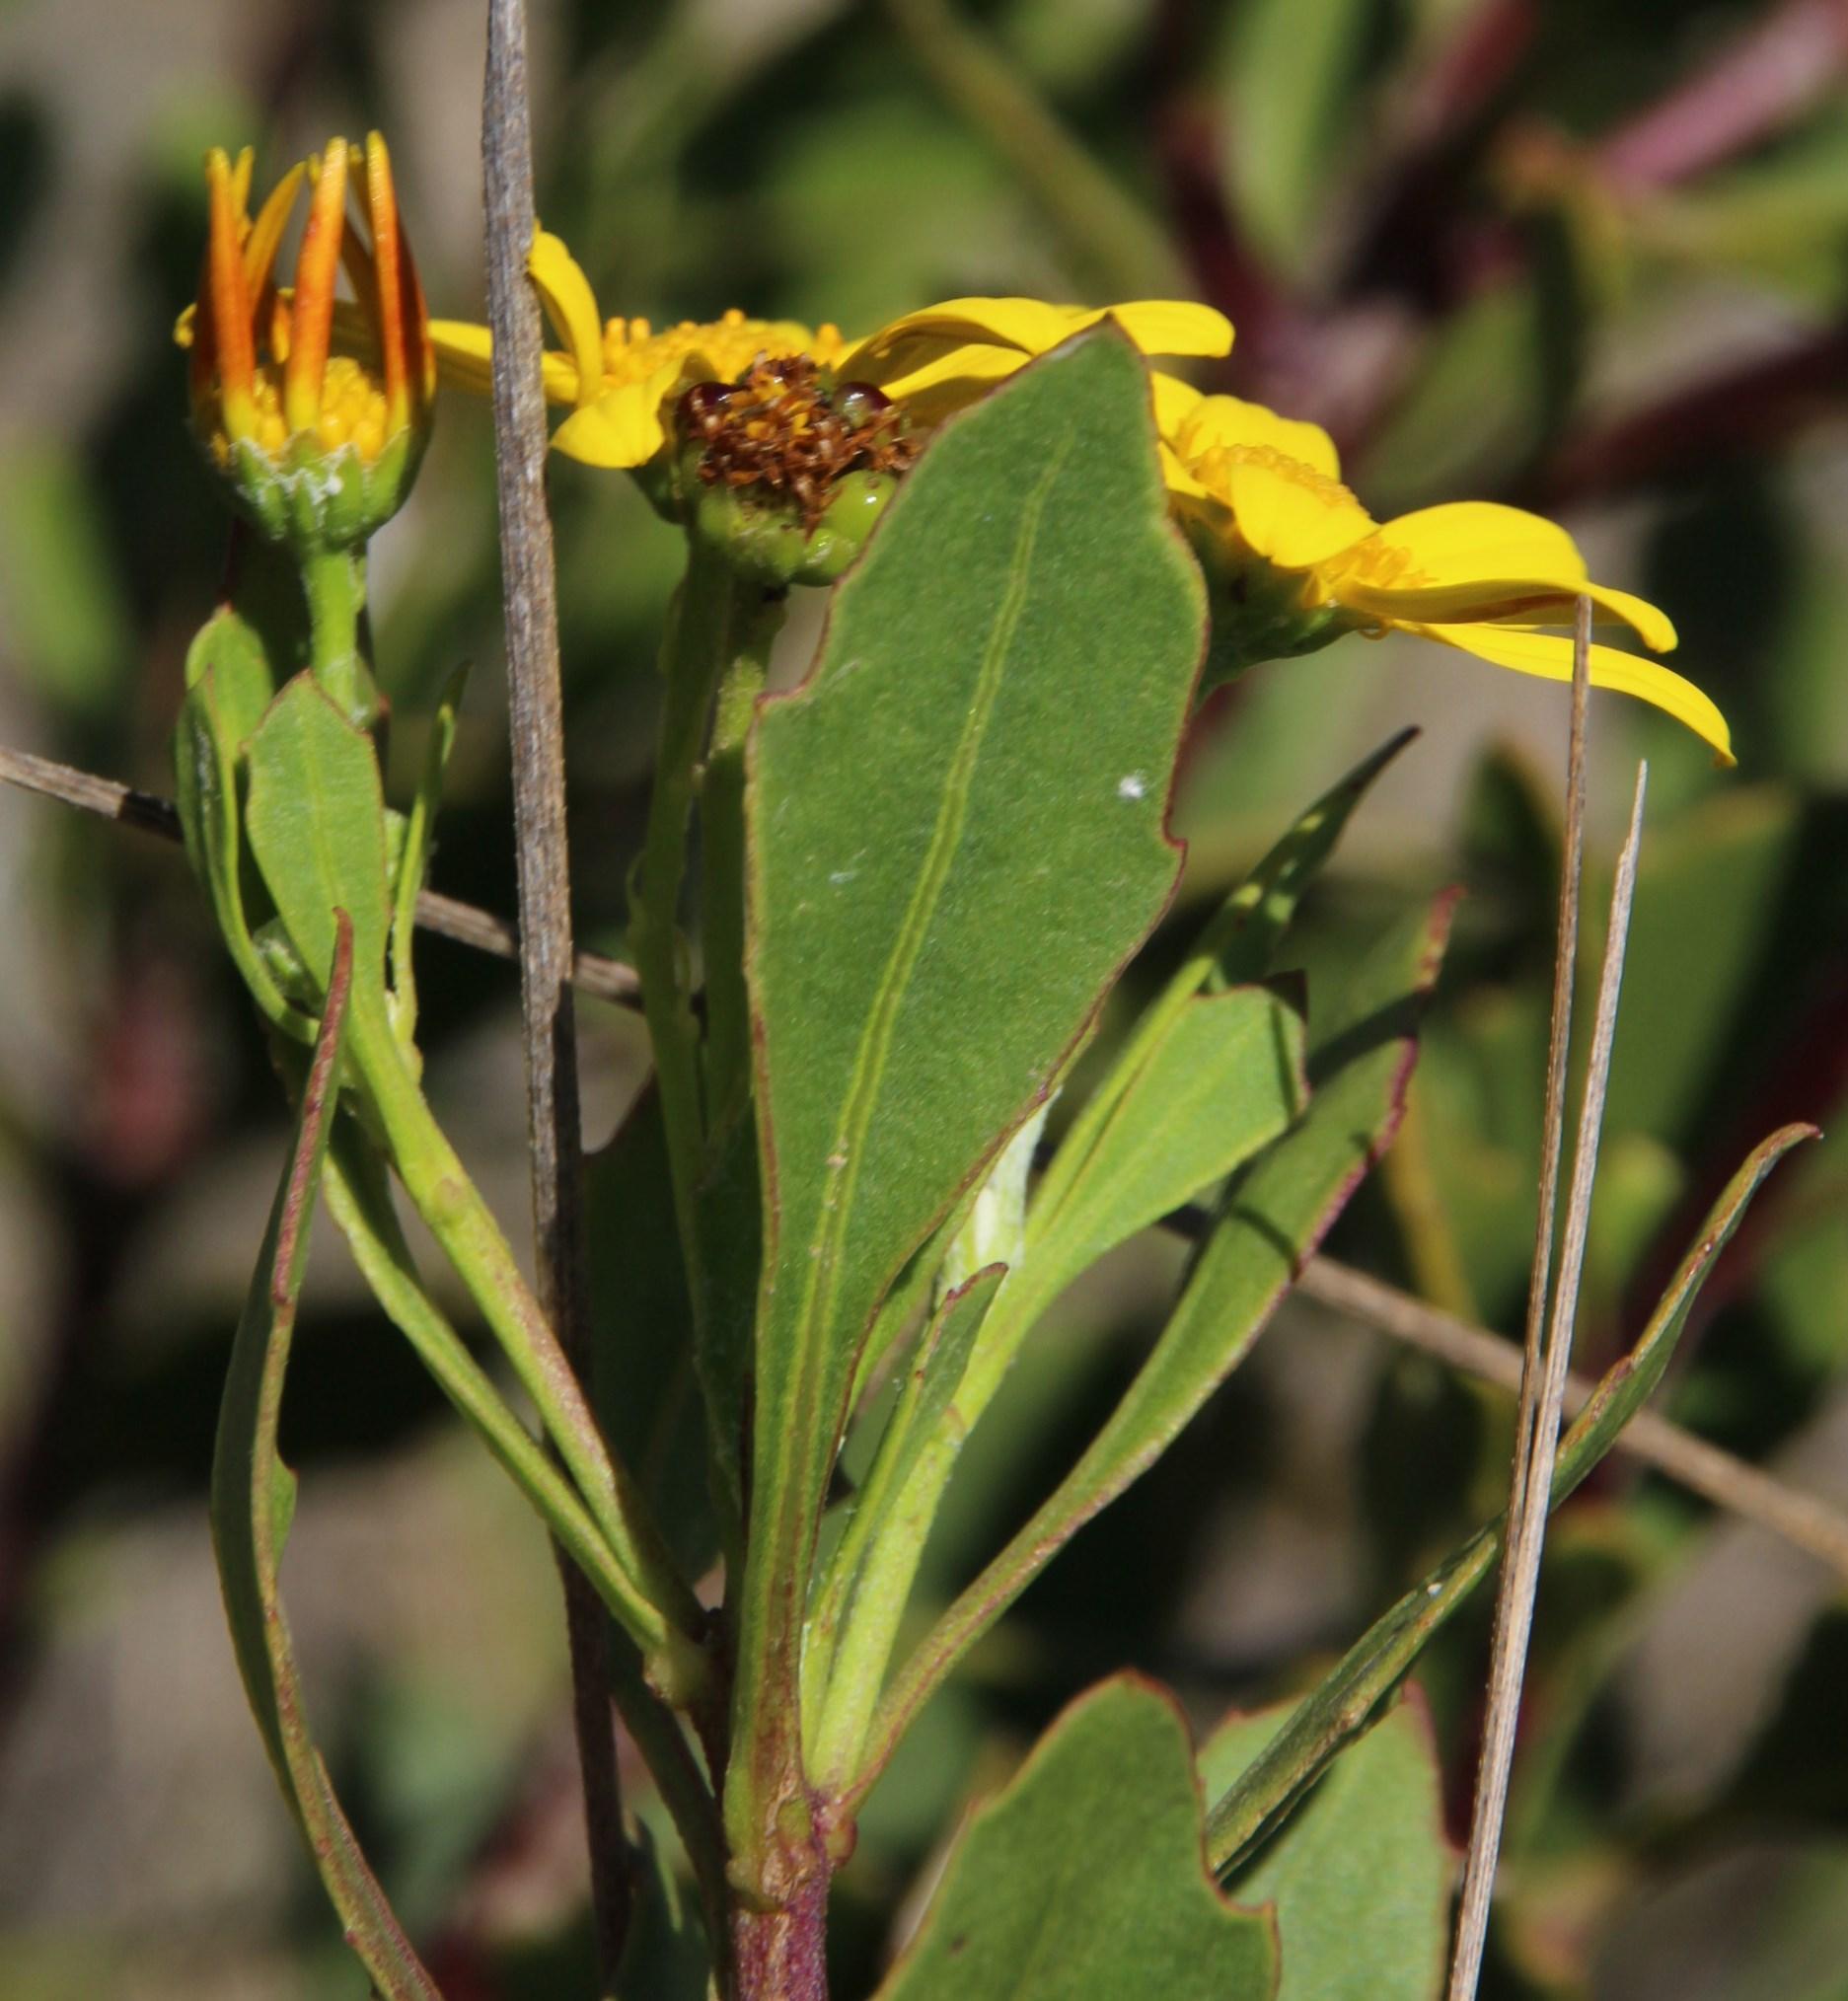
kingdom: Plantae
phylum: Tracheophyta
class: Magnoliopsida
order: Asterales
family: Asteraceae
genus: Osteospermum
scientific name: Osteospermum moniliferum
